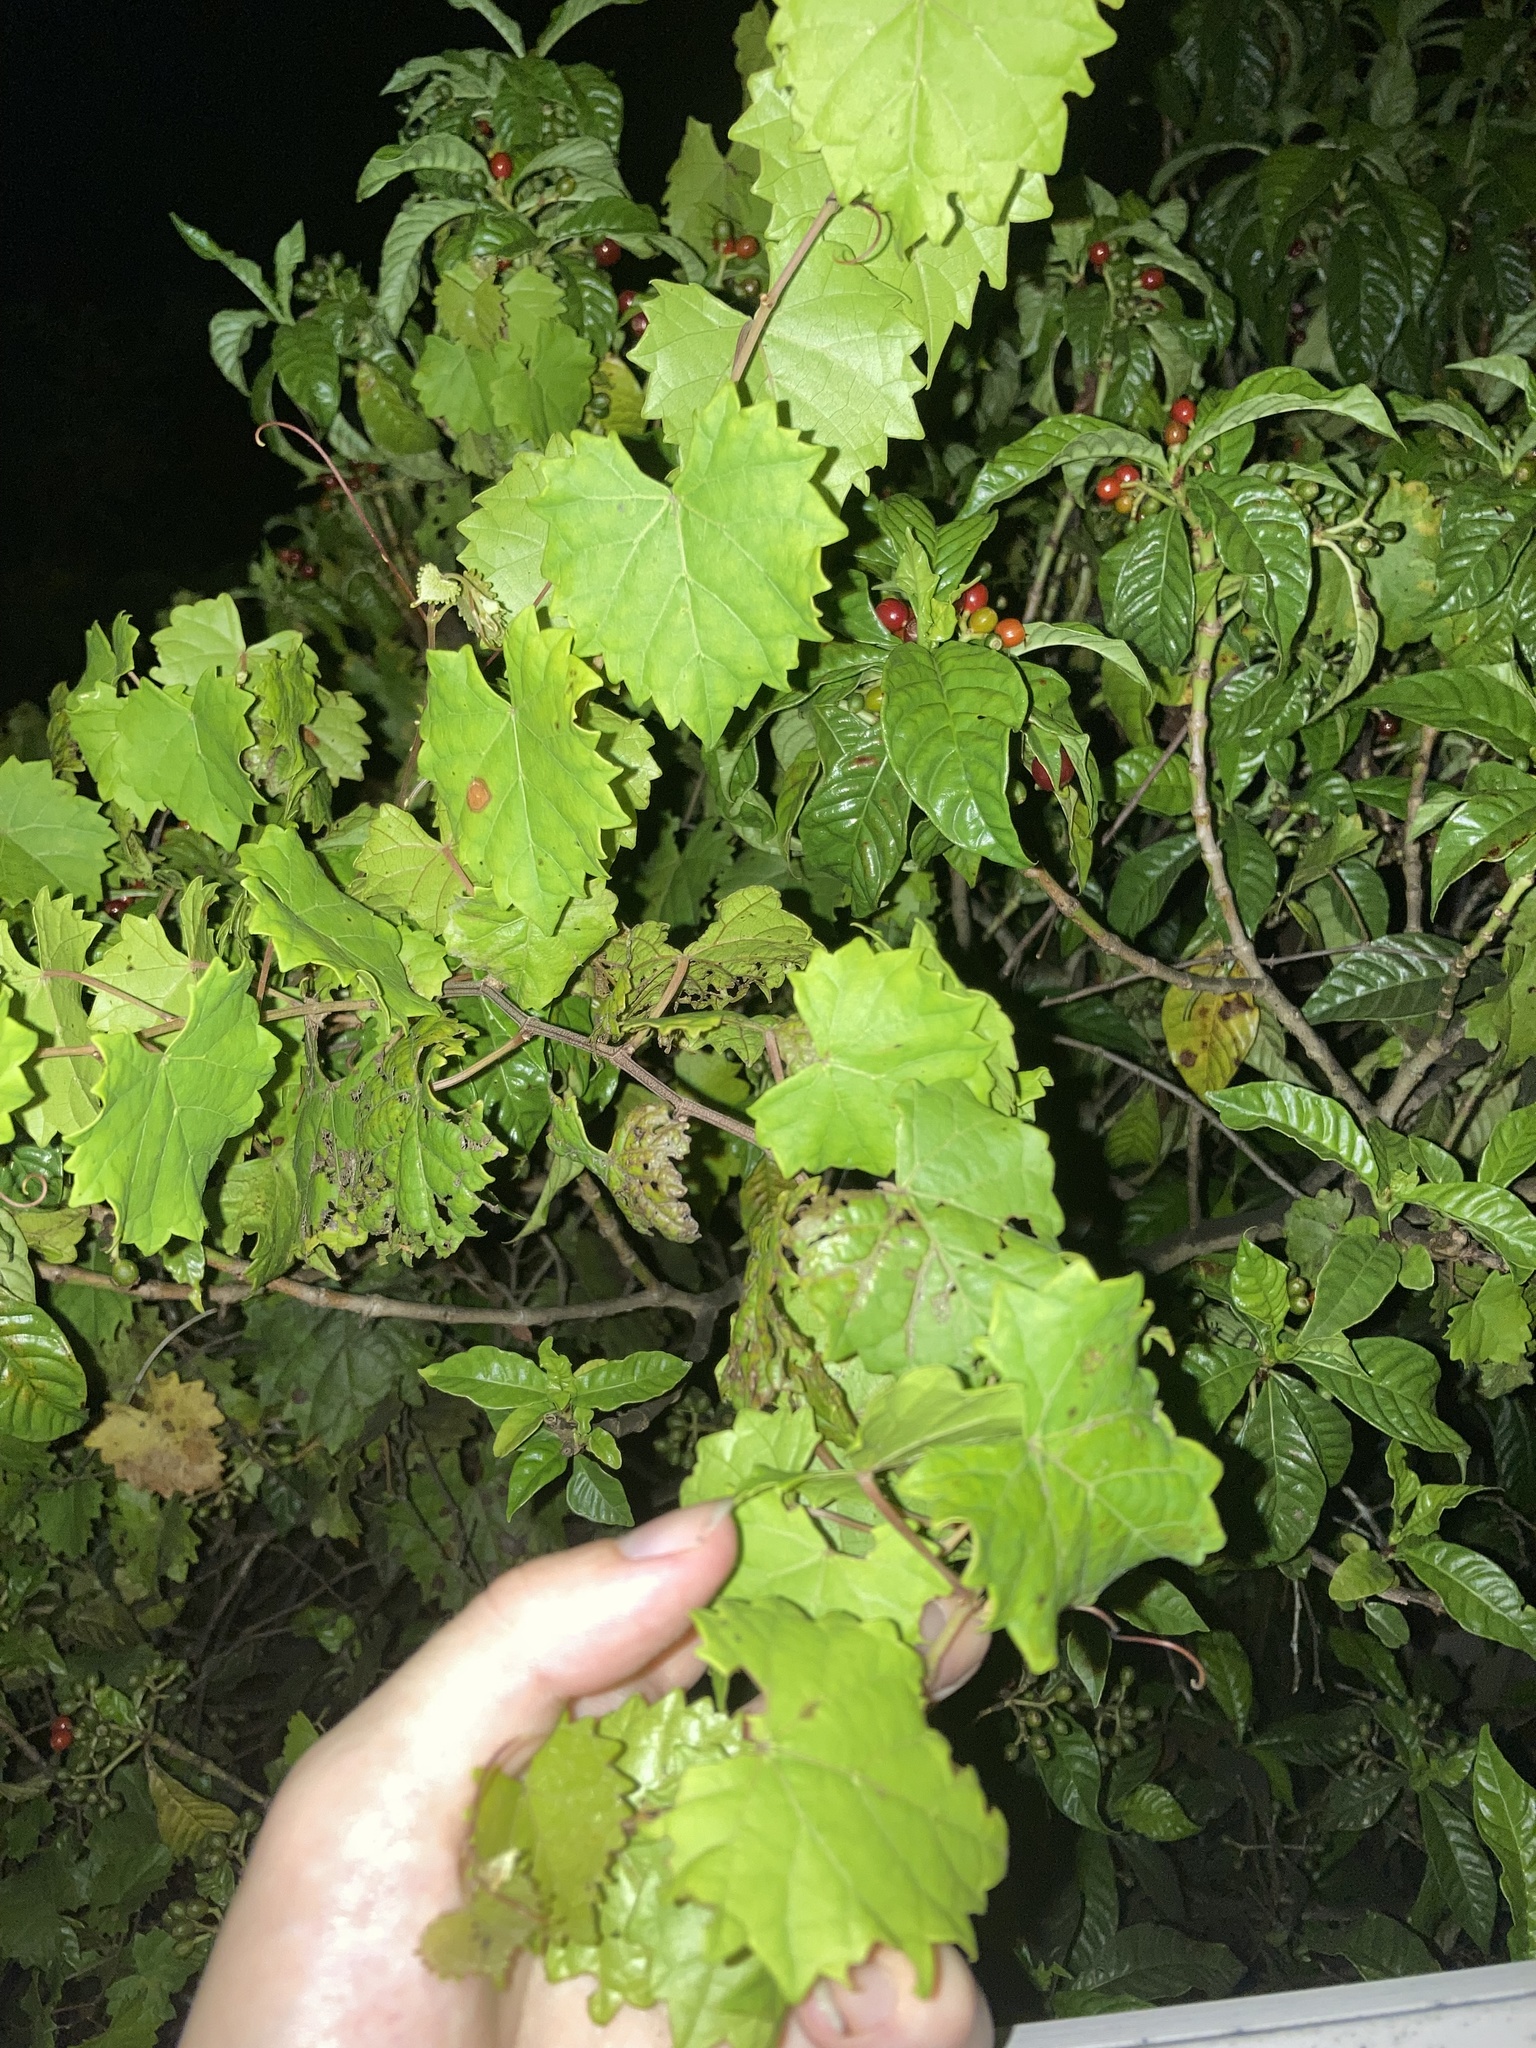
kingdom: Plantae
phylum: Tracheophyta
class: Magnoliopsida
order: Vitales
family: Vitaceae
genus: Vitis
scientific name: Vitis rotundifolia
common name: Muscadine grape
